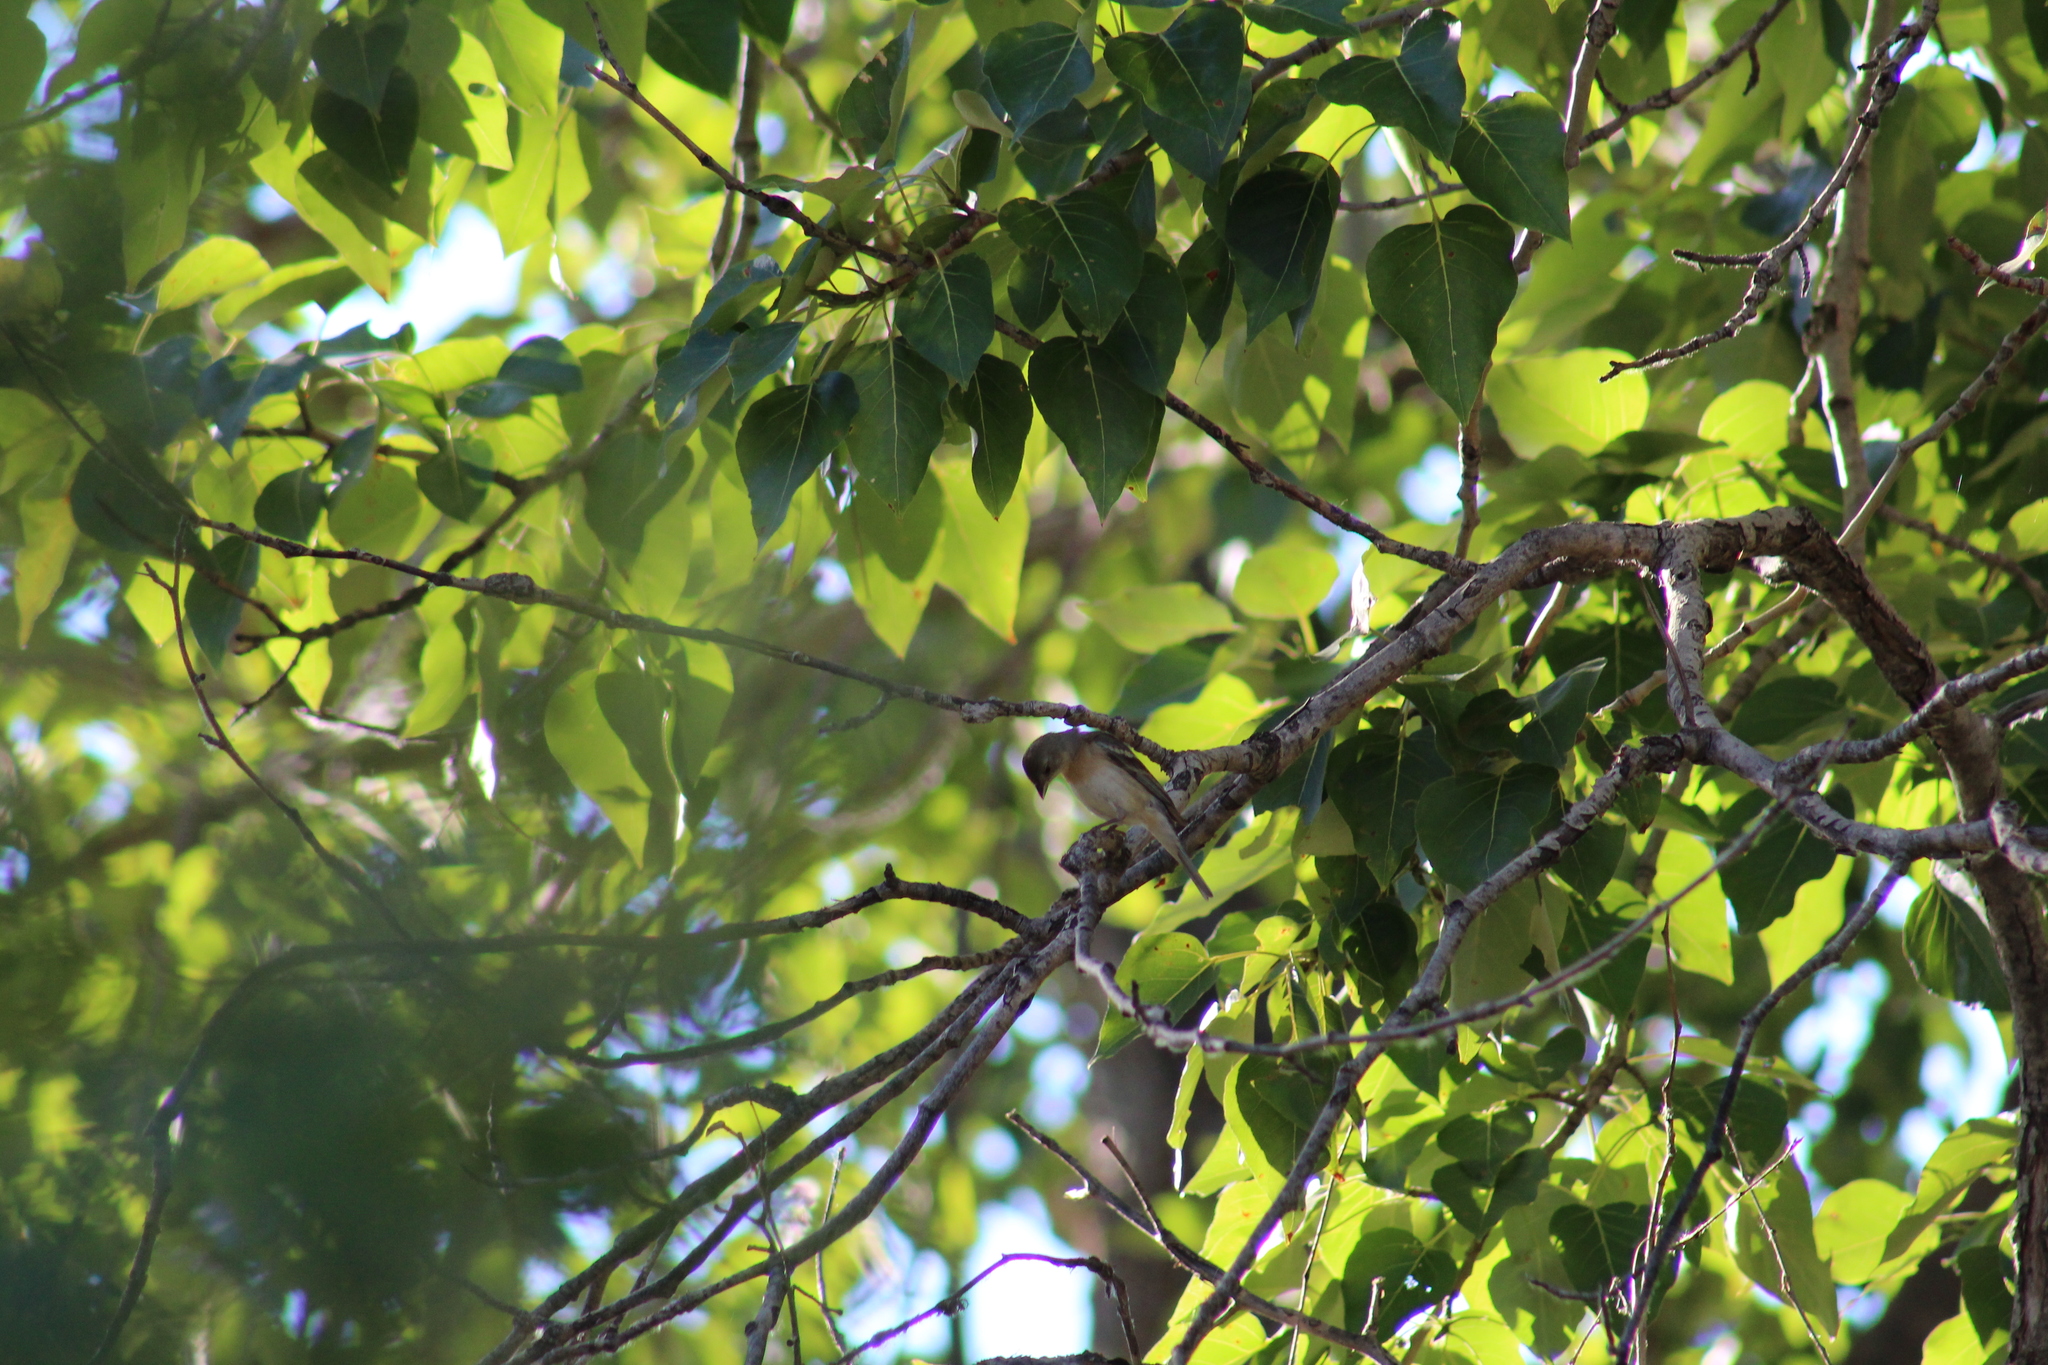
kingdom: Animalia
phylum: Chordata
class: Aves
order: Passeriformes
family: Cardinalidae
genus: Passerina
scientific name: Passerina amoena
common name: Lazuli bunting
